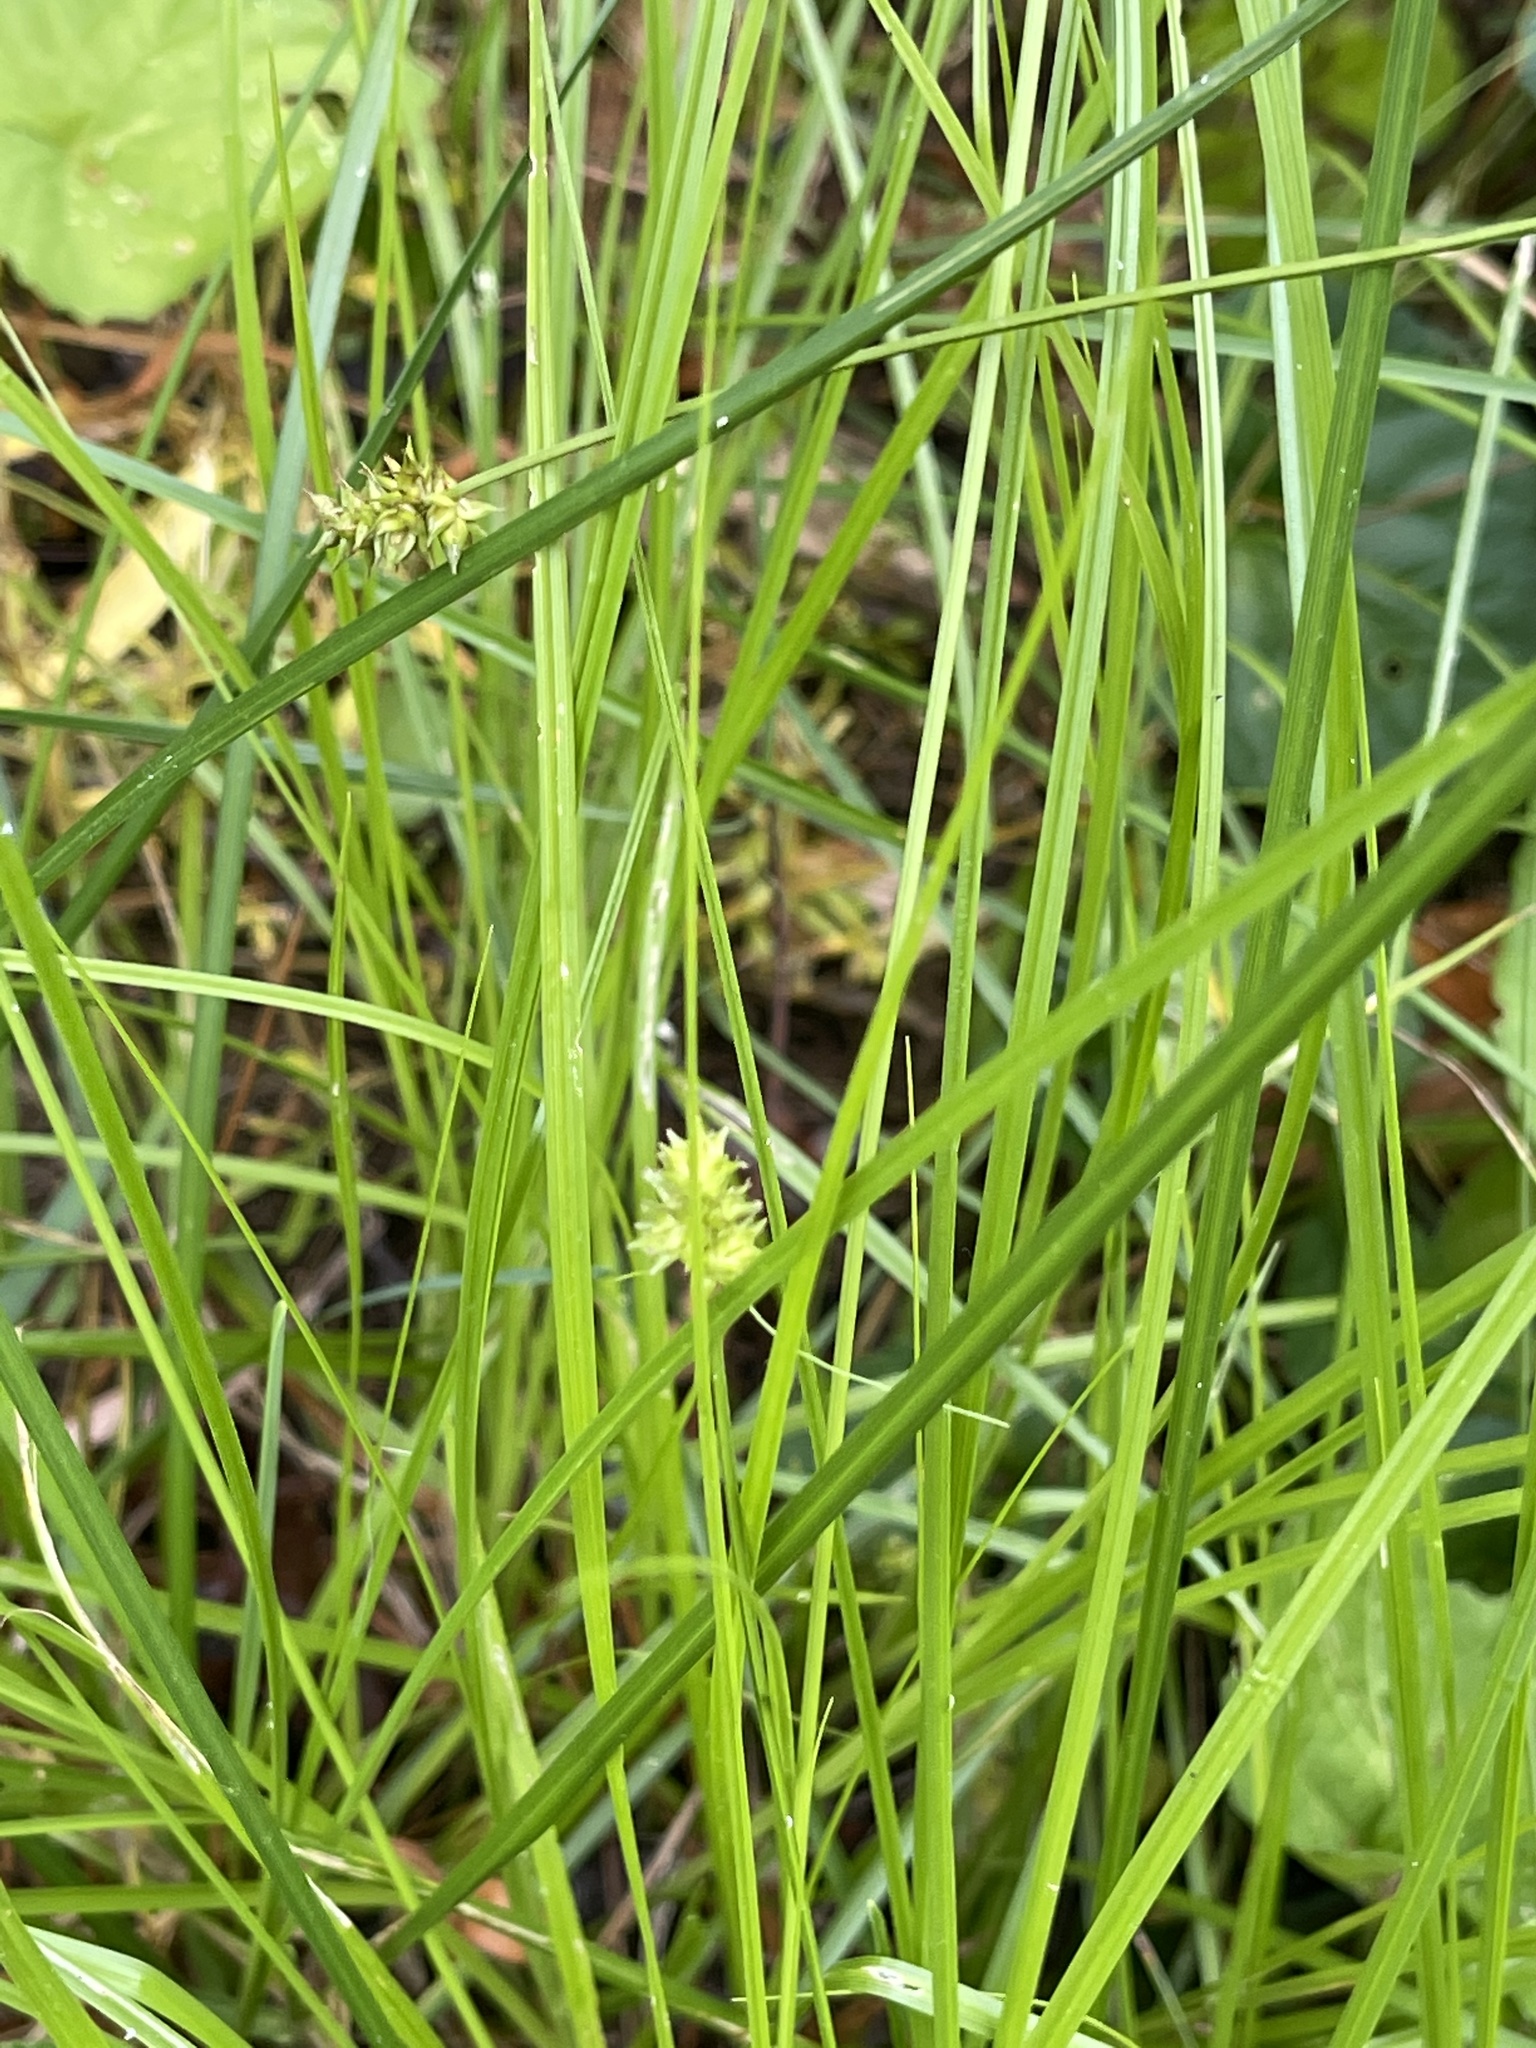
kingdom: Plantae
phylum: Tracheophyta
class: Liliopsida
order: Poales
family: Cyperaceae
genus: Carex
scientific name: Carex cephalophora
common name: Oval-headed sedge
